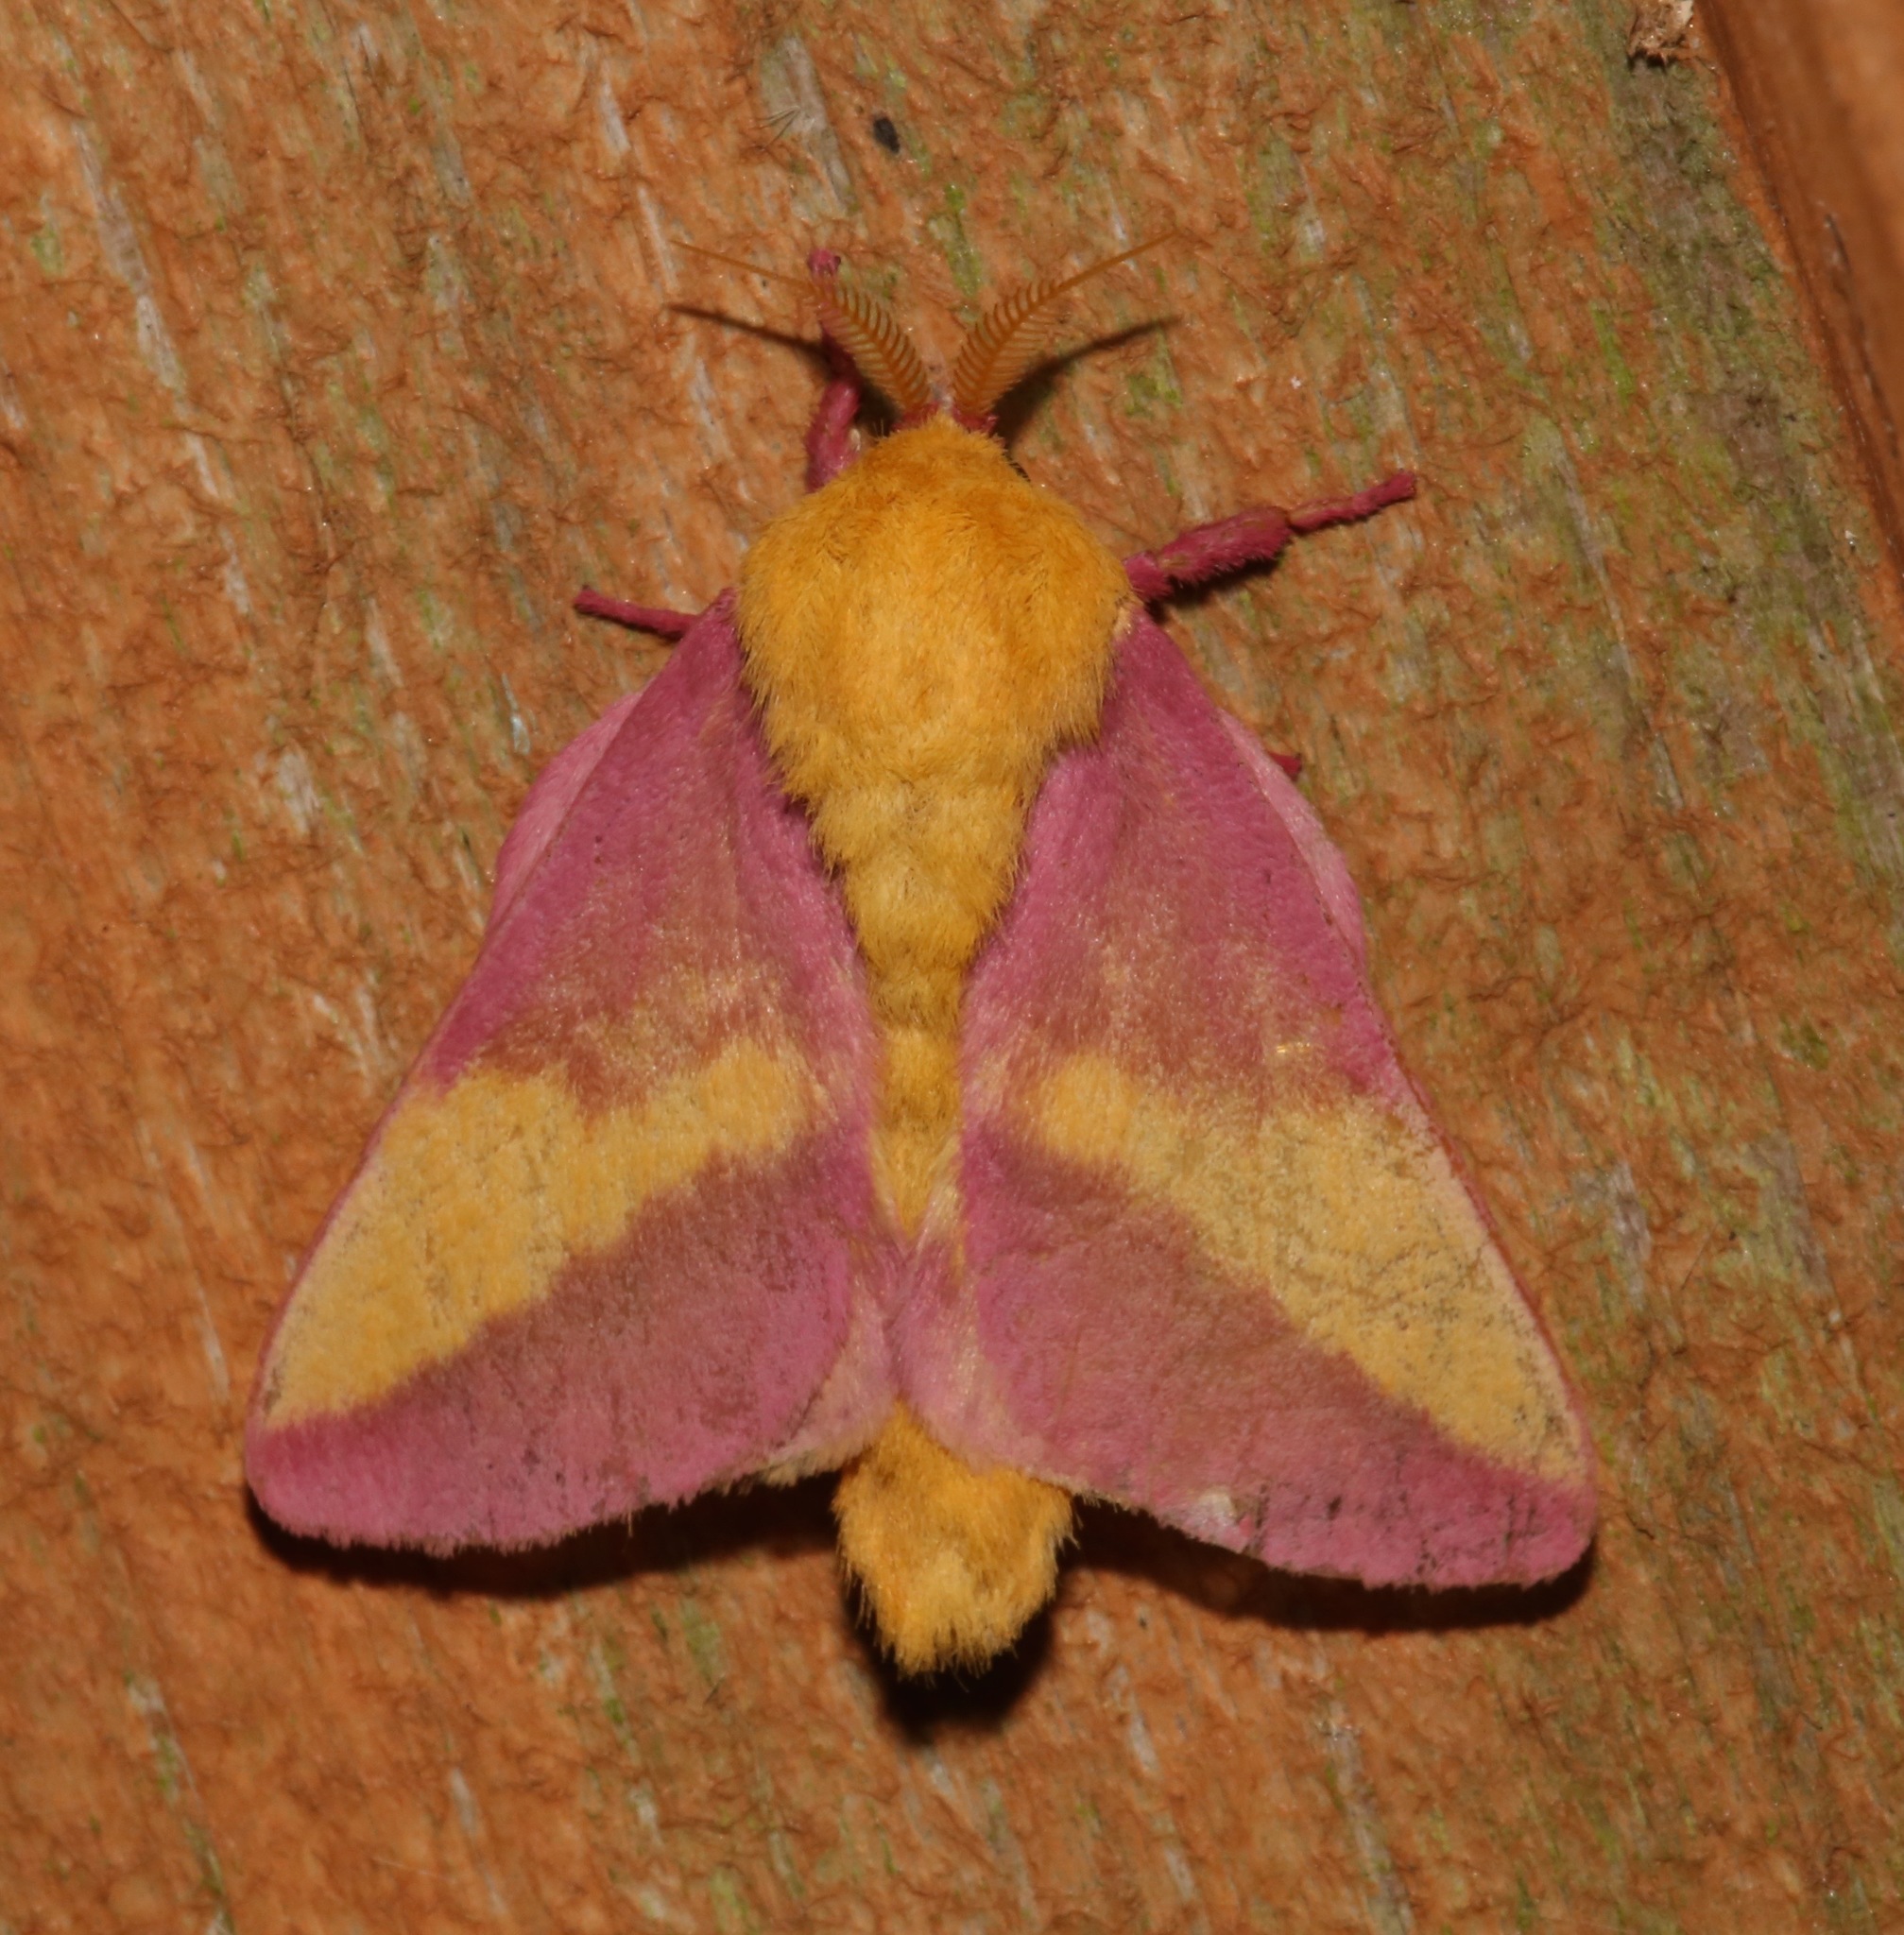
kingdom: Animalia
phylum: Arthropoda
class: Insecta
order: Lepidoptera
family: Saturniidae
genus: Dryocampa
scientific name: Dryocampa rubicunda
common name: Rosy maple moth
